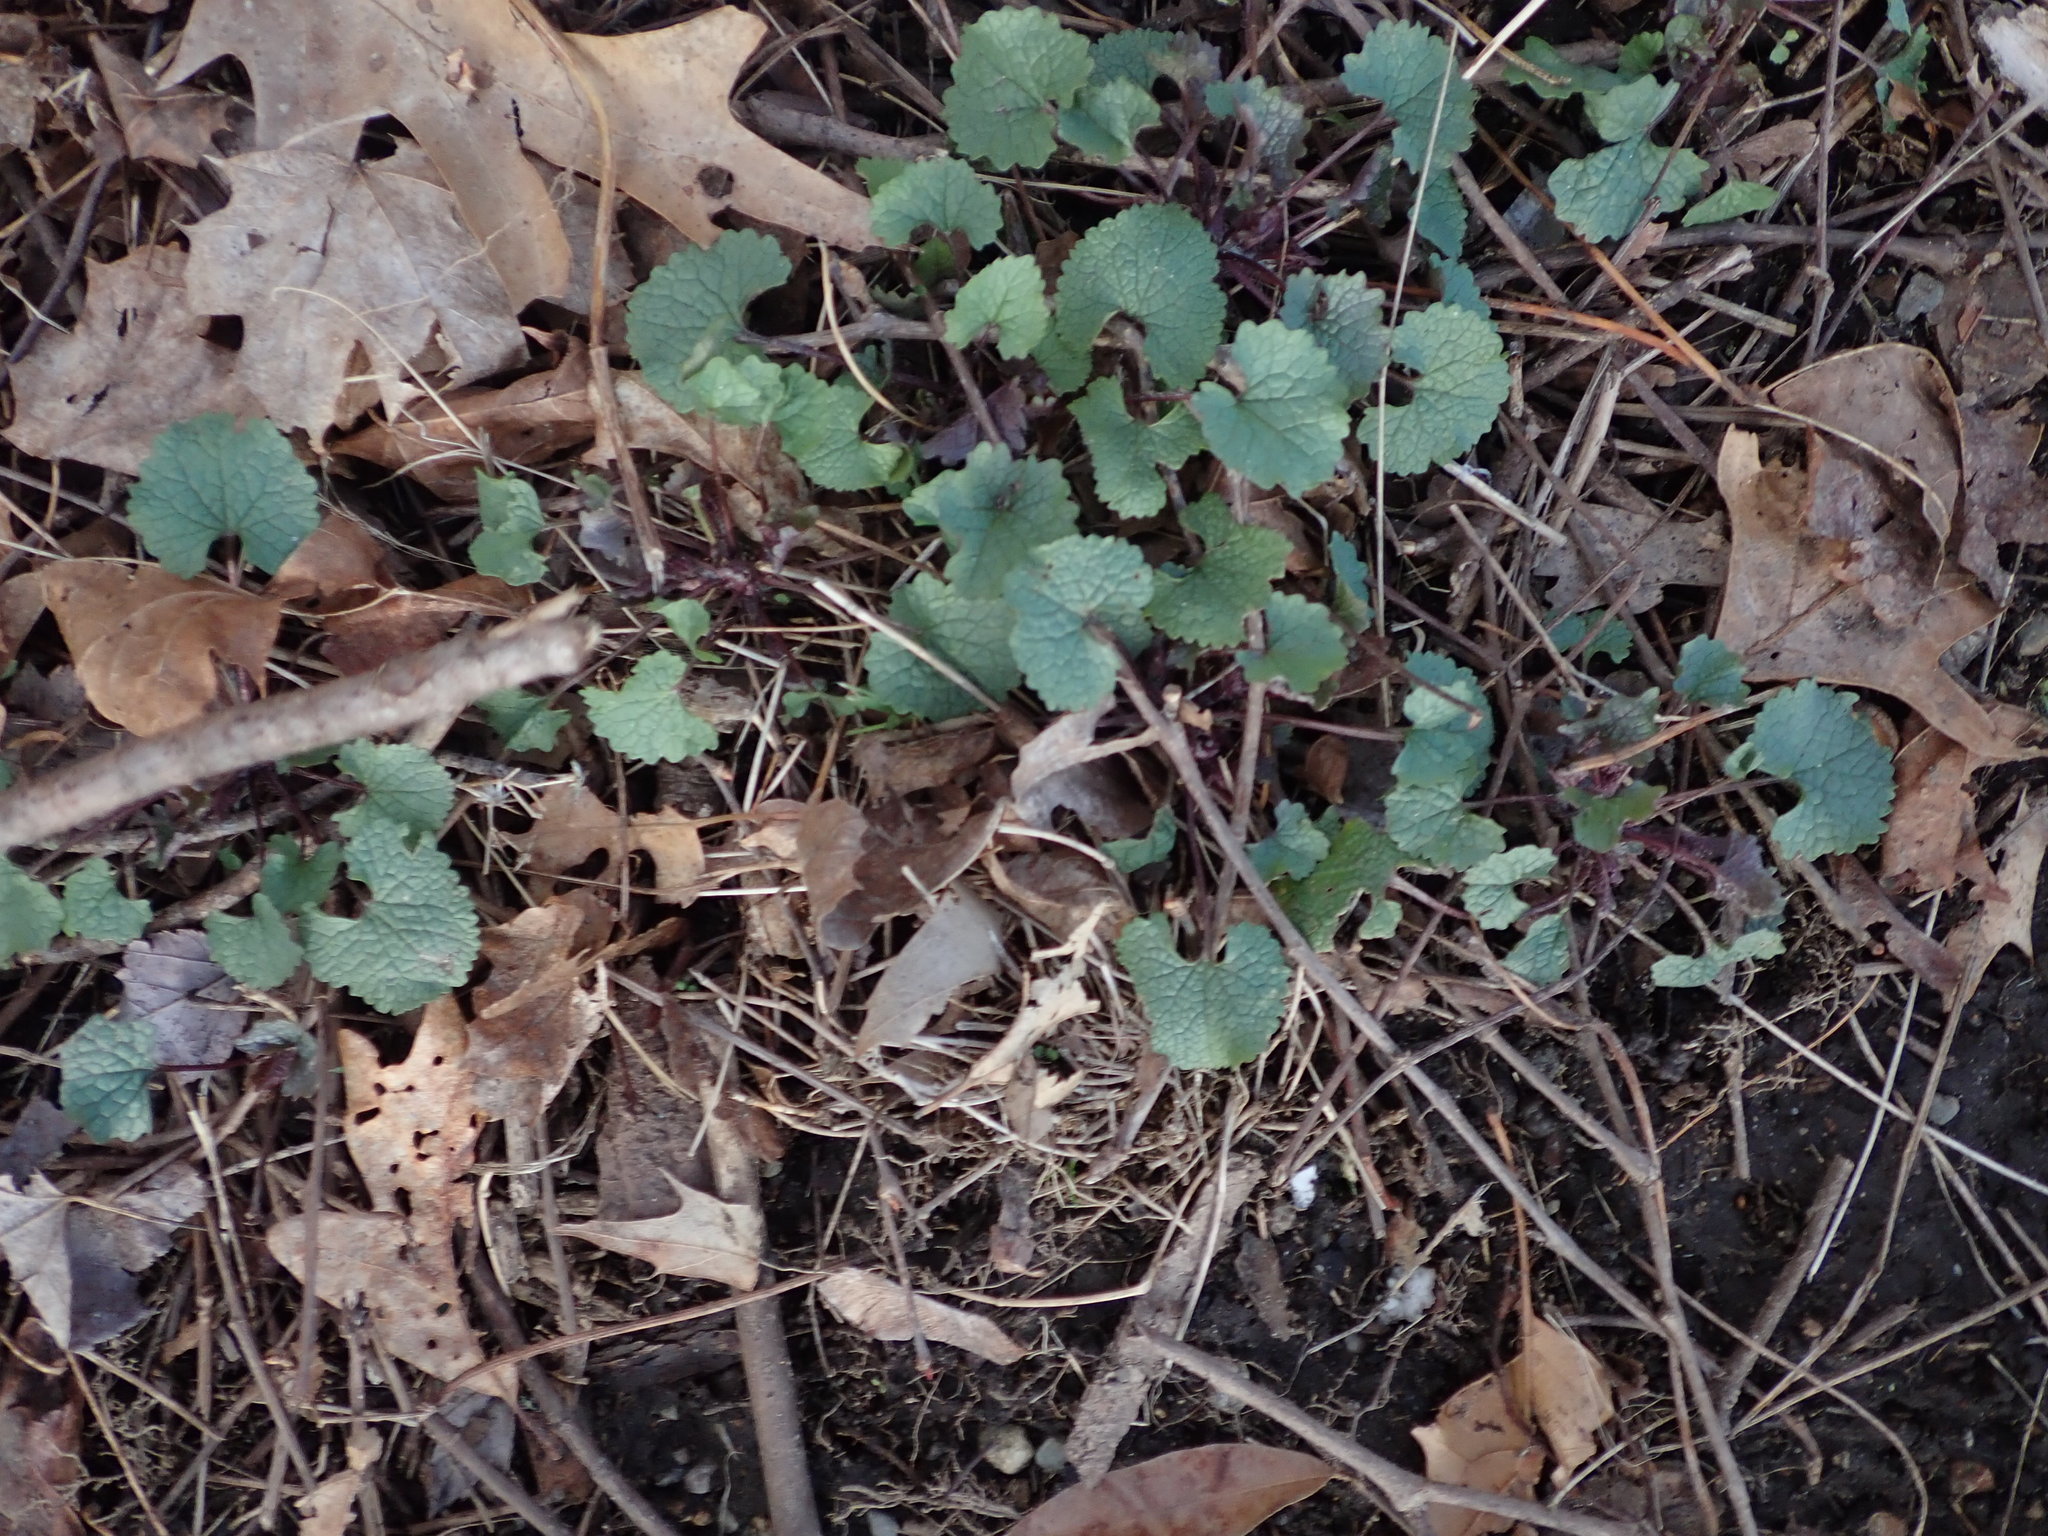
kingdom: Plantae
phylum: Tracheophyta
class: Magnoliopsida
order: Brassicales
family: Brassicaceae
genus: Alliaria
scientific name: Alliaria petiolata
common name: Garlic mustard
